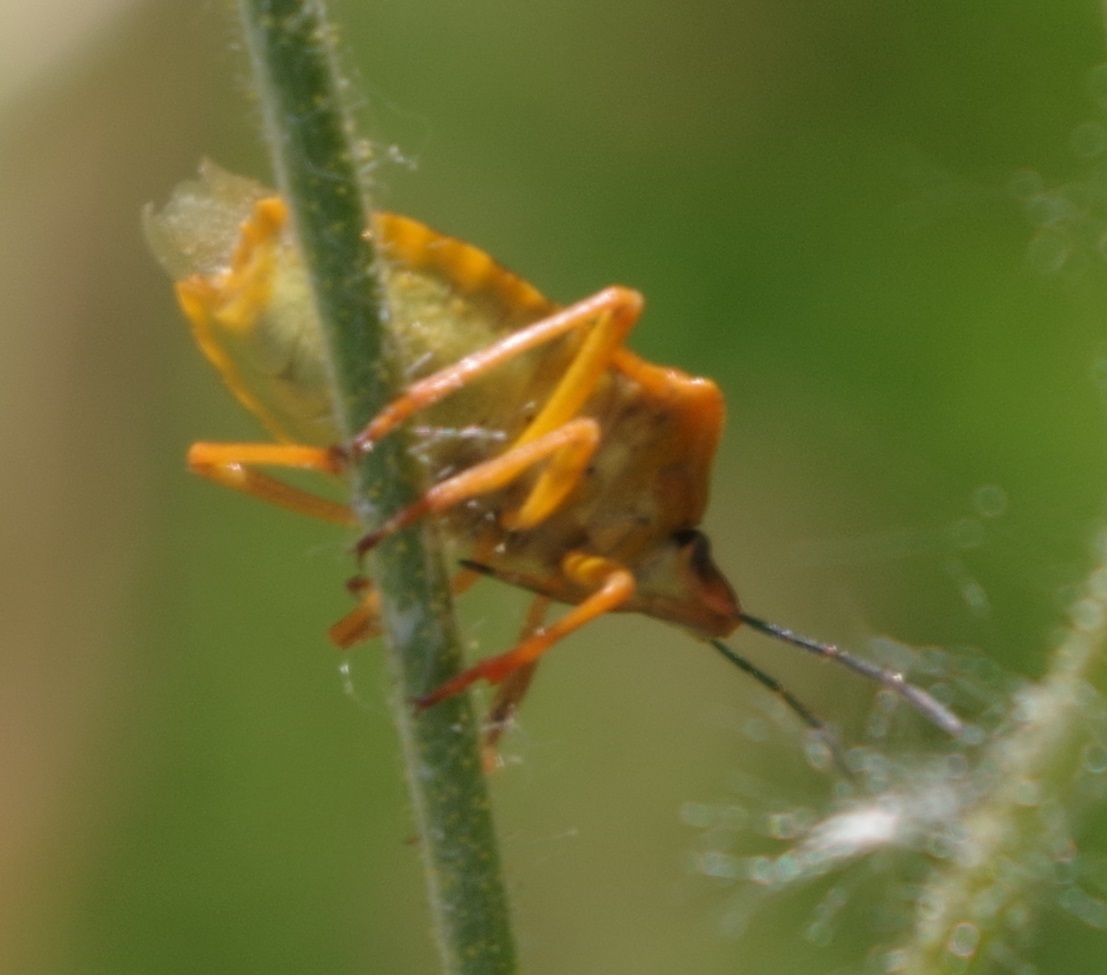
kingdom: Animalia
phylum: Arthropoda
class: Insecta
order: Hemiptera
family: Pentatomidae
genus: Carpocoris
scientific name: Carpocoris purpureipennis
